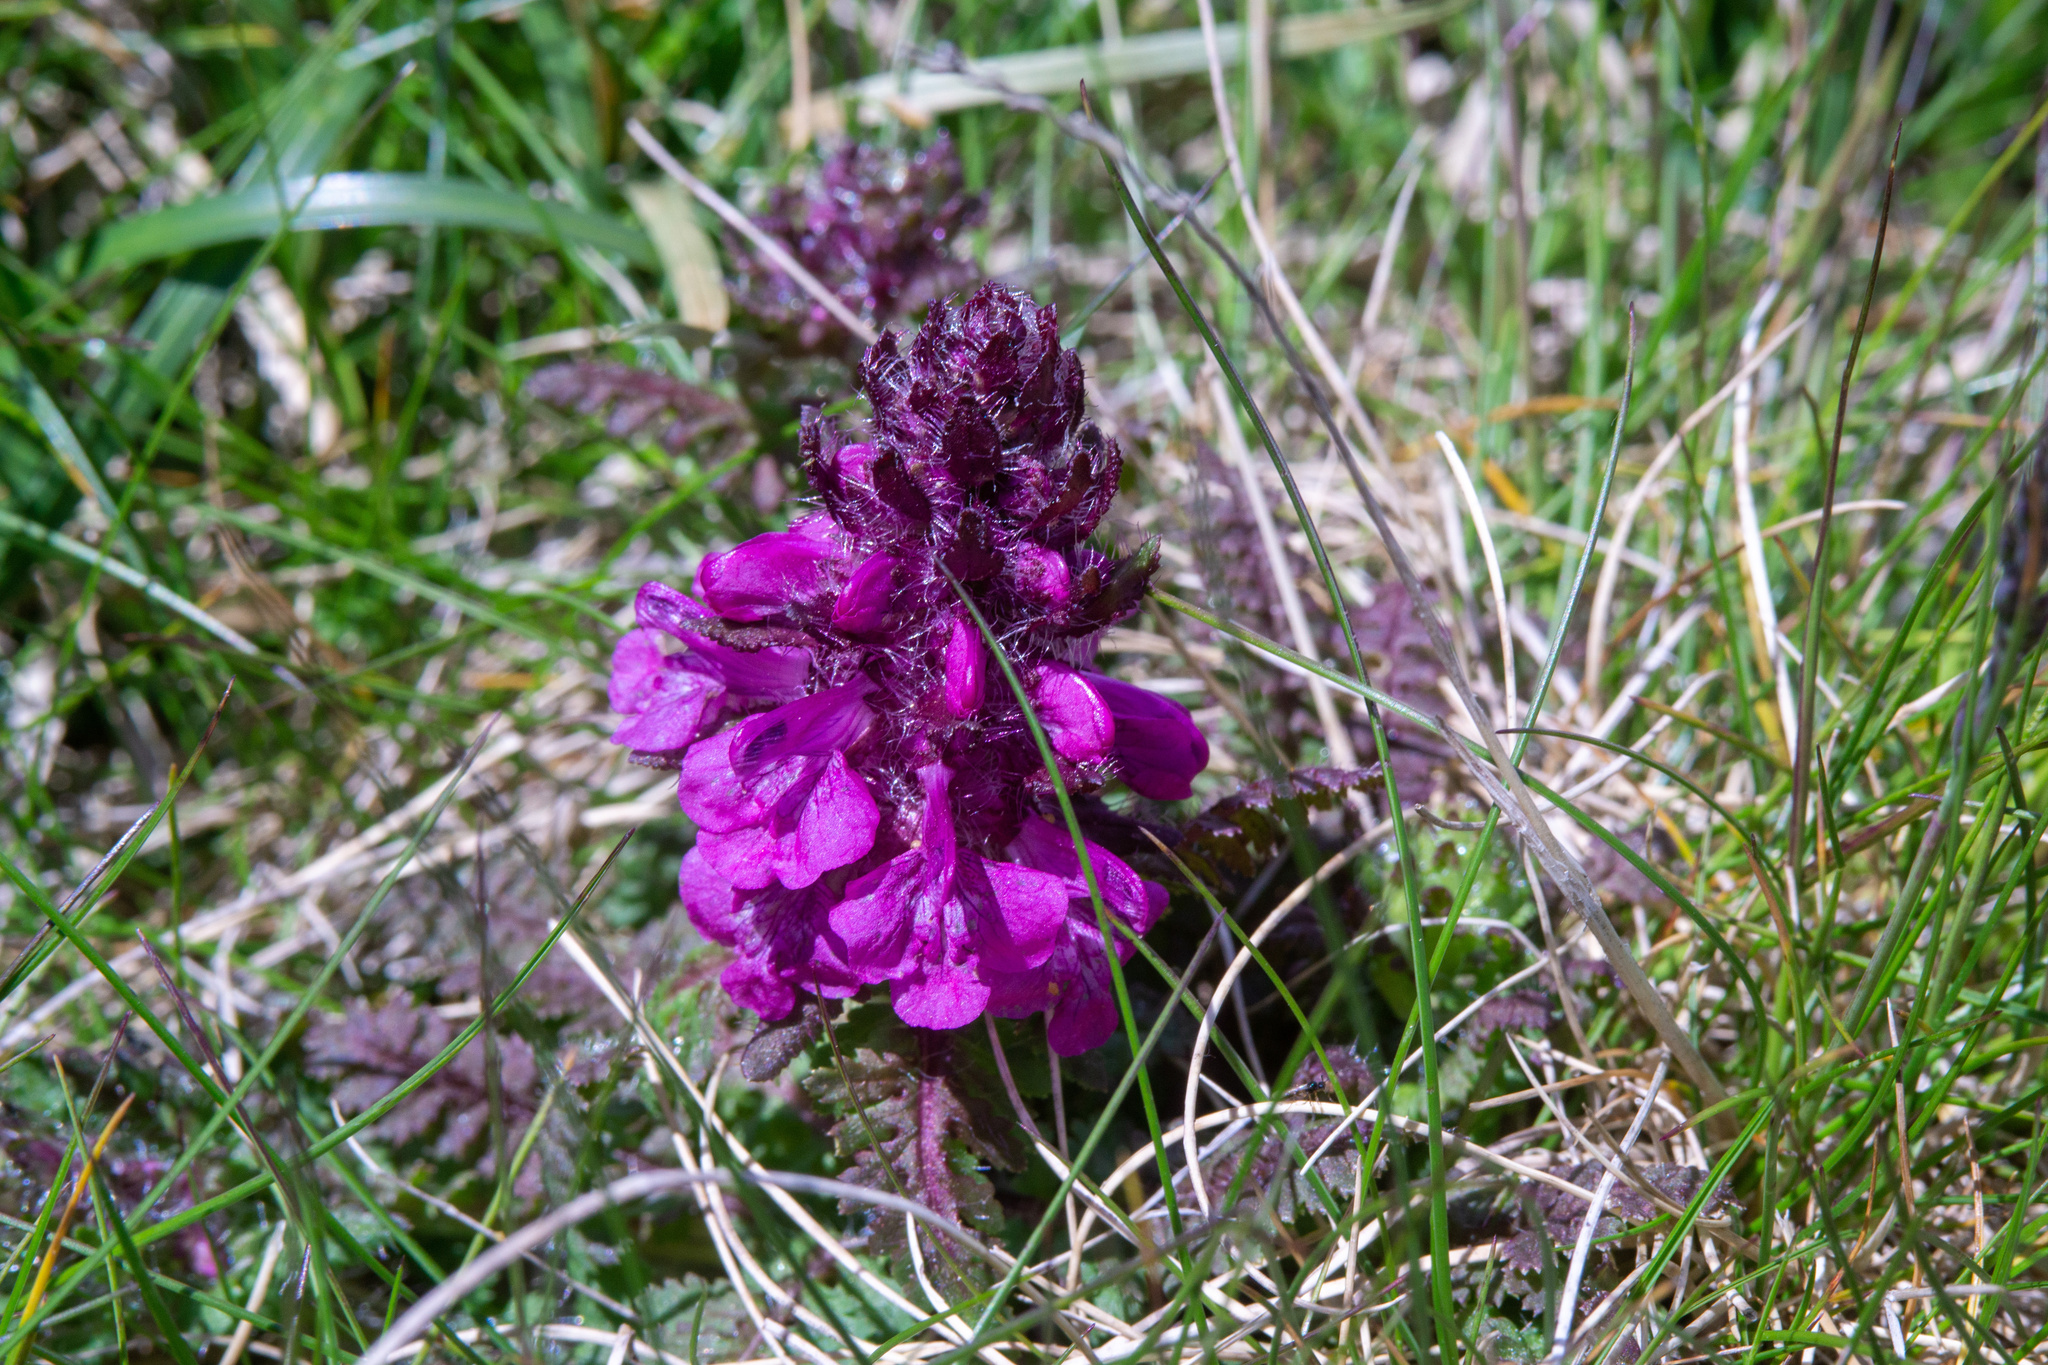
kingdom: Plantae
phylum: Tracheophyta
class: Magnoliopsida
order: Lamiales
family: Orobanchaceae
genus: Pedicularis
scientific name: Pedicularis verticillata
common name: Whorled lousewort
